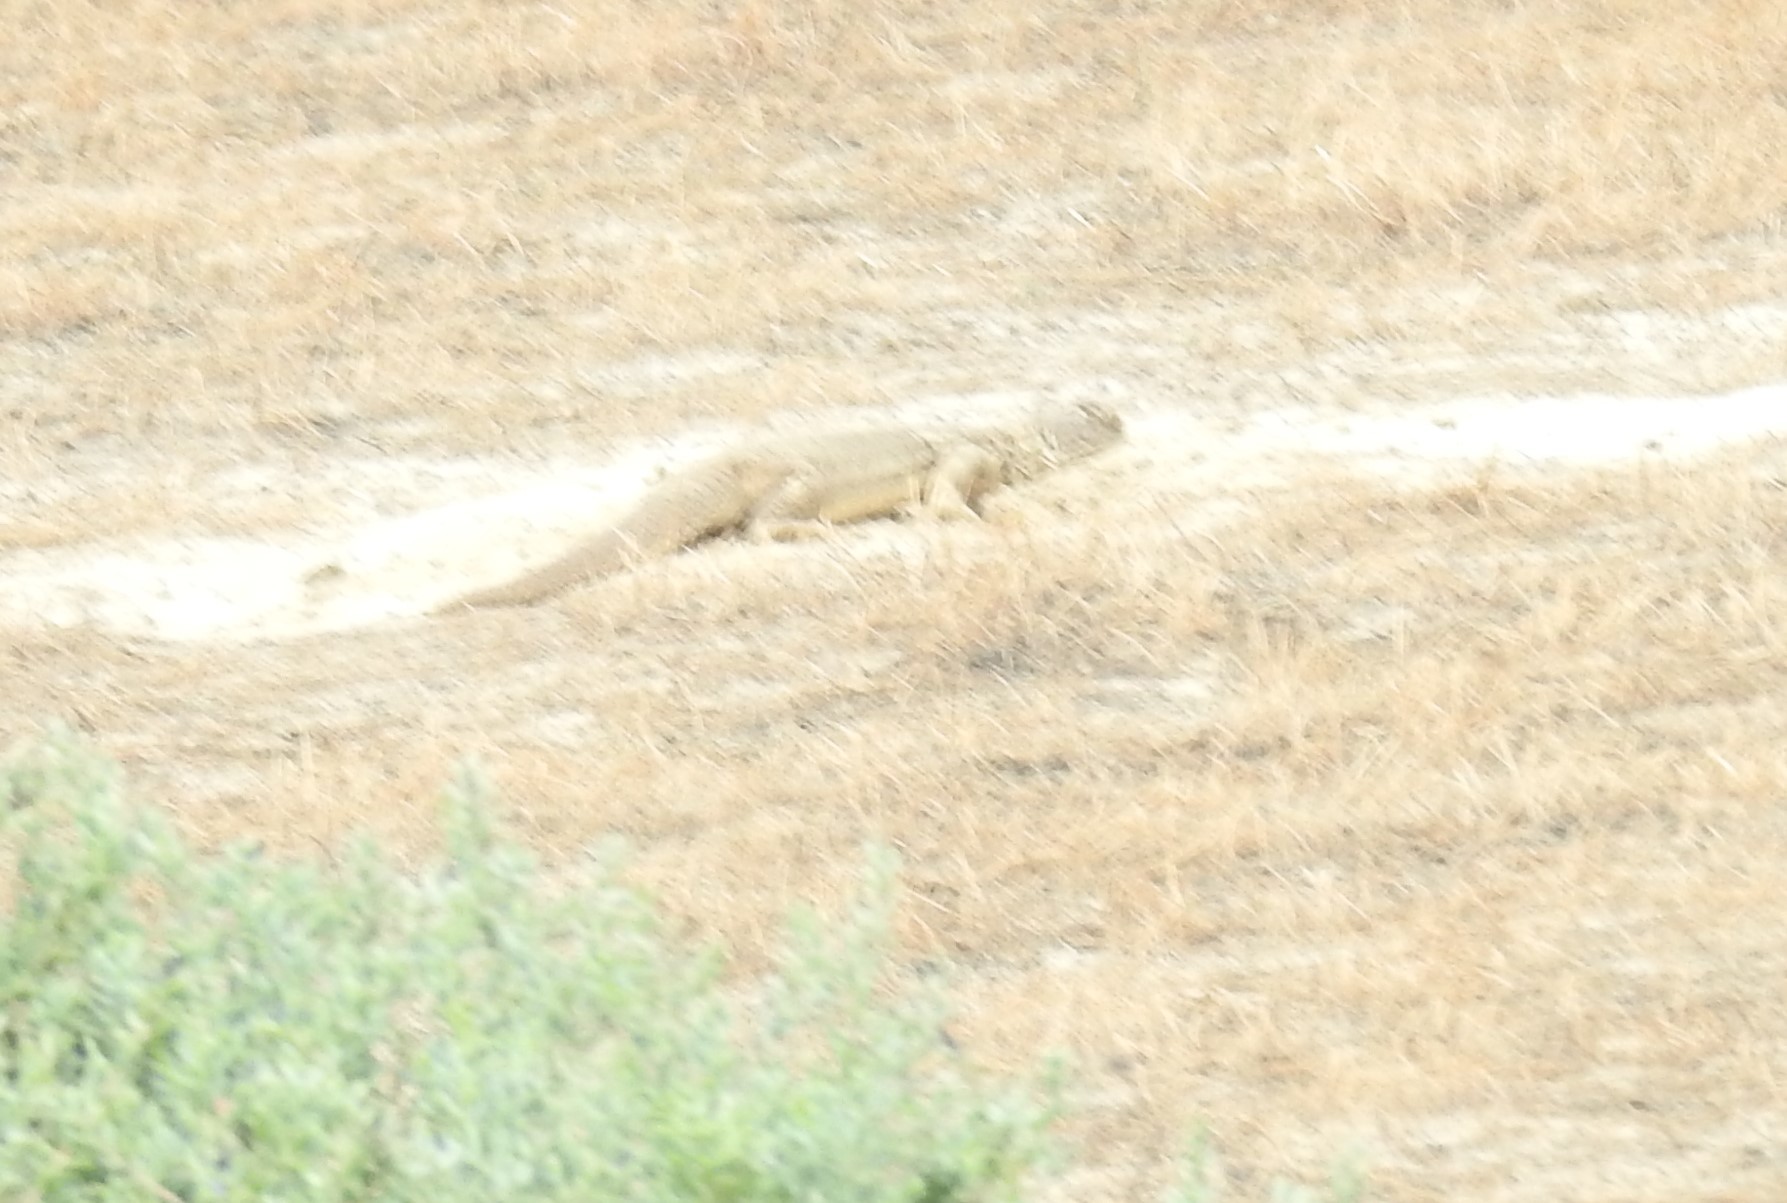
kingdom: Animalia
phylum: Chordata
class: Squamata
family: Agamidae
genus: Saara
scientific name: Saara hardwickii
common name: Hardwick's spiny-tailed lizard
